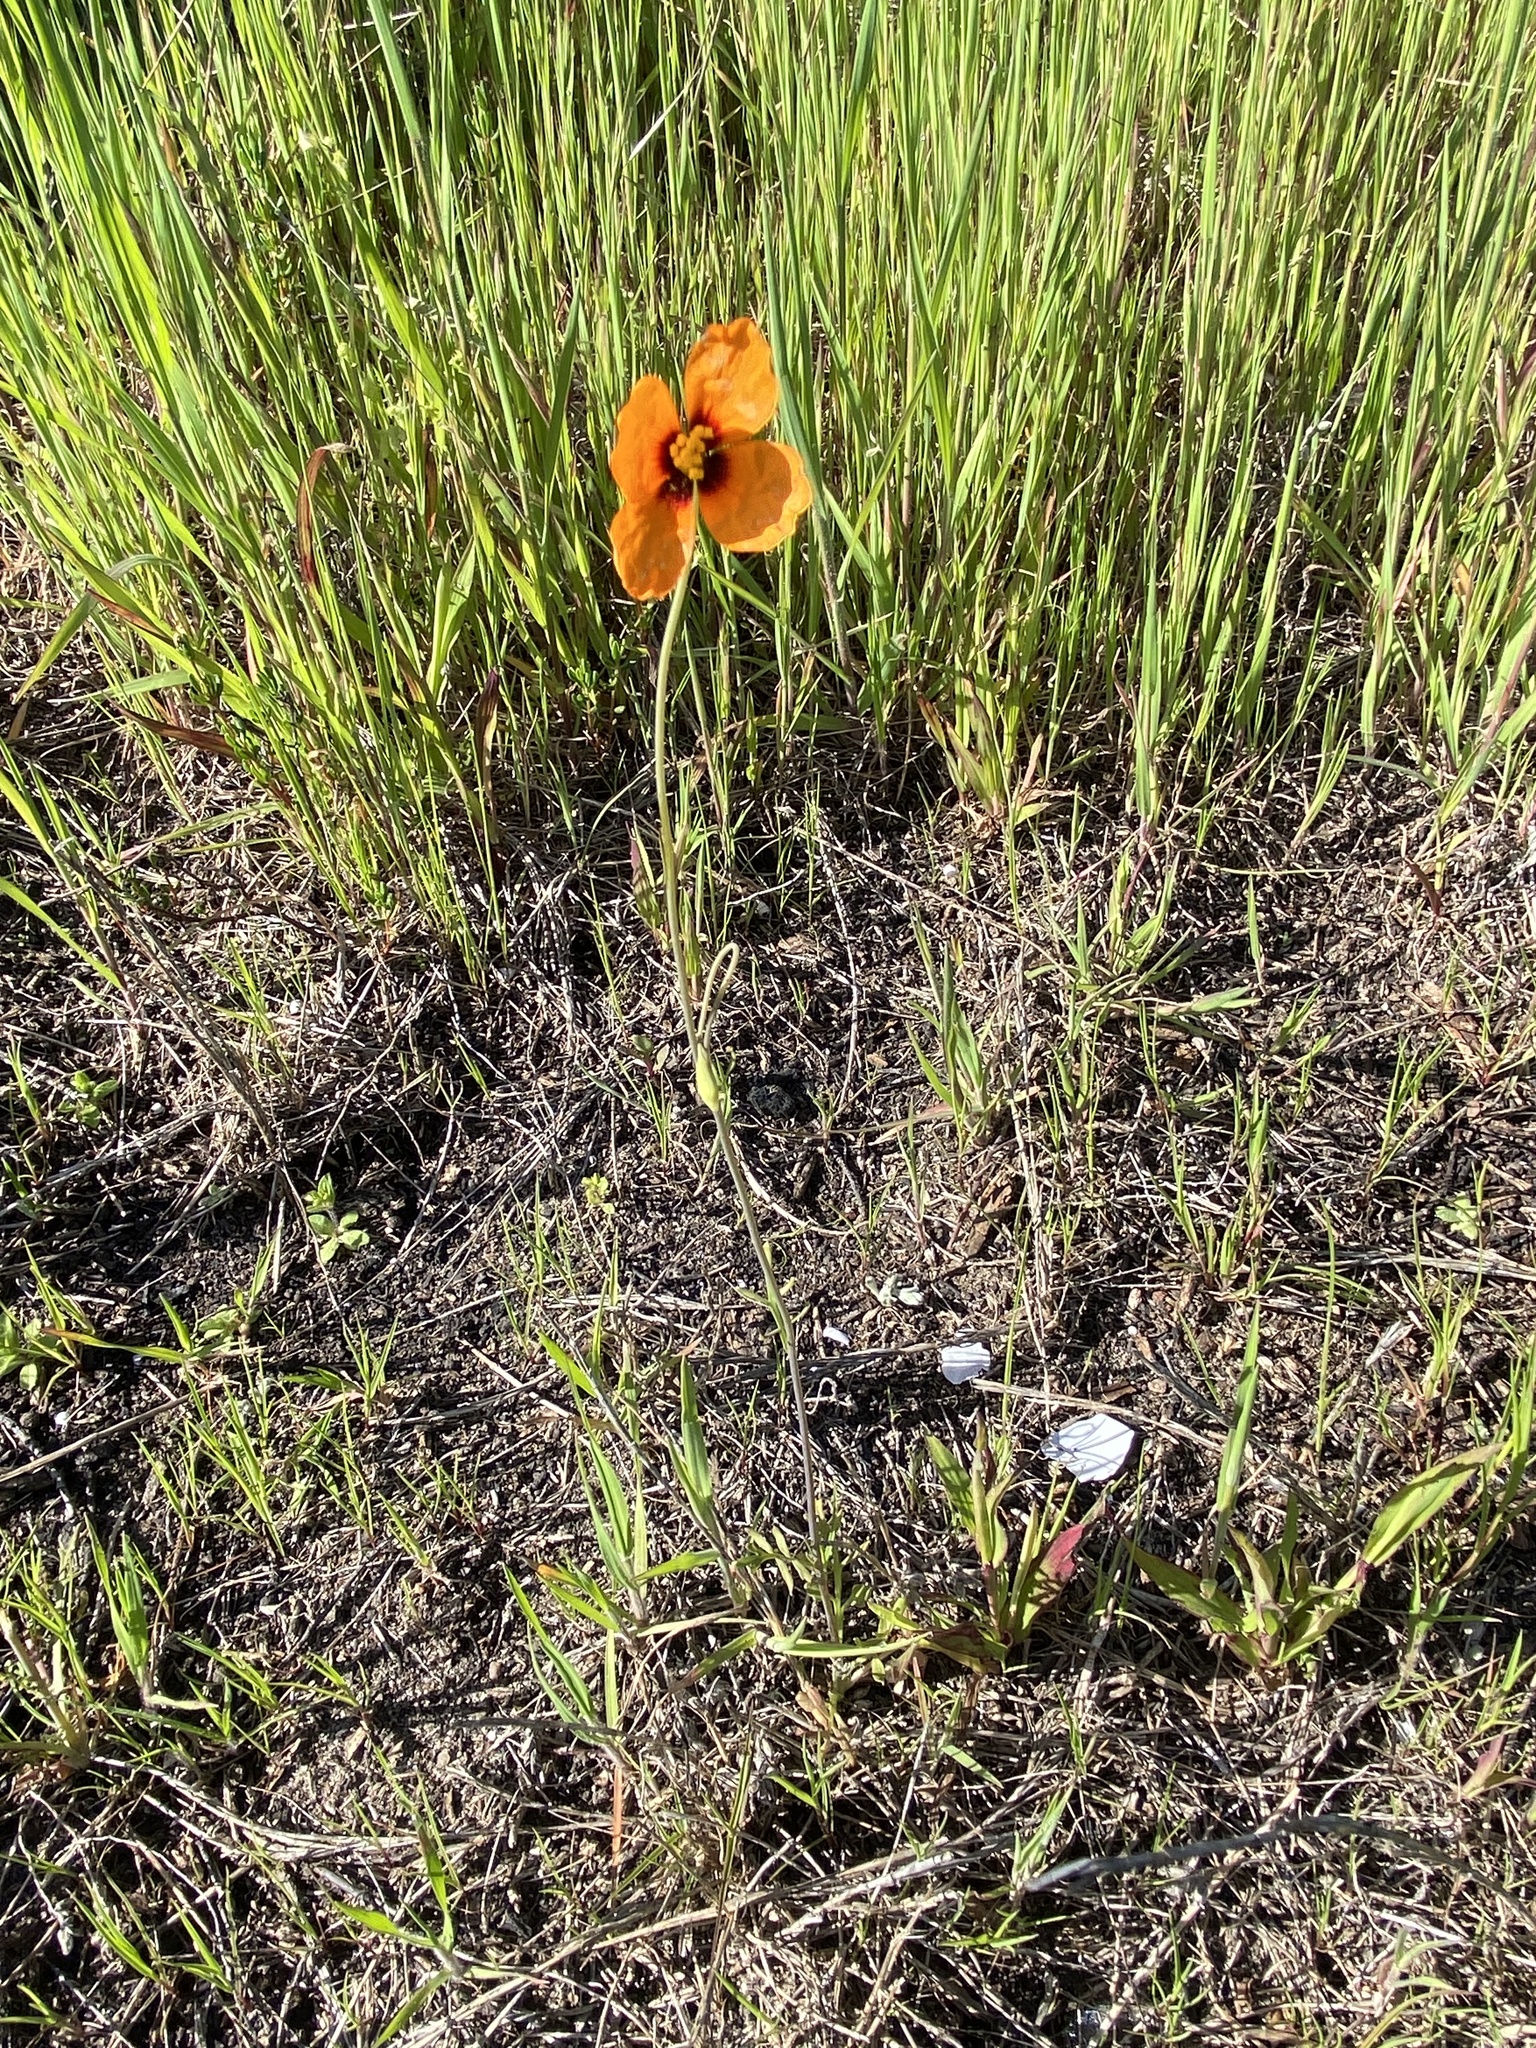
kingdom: Plantae
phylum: Tracheophyta
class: Magnoliopsida
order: Ranunculales
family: Papaveraceae
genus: Stylomecon
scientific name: Stylomecon heterophylla
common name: Flaming-poppy
